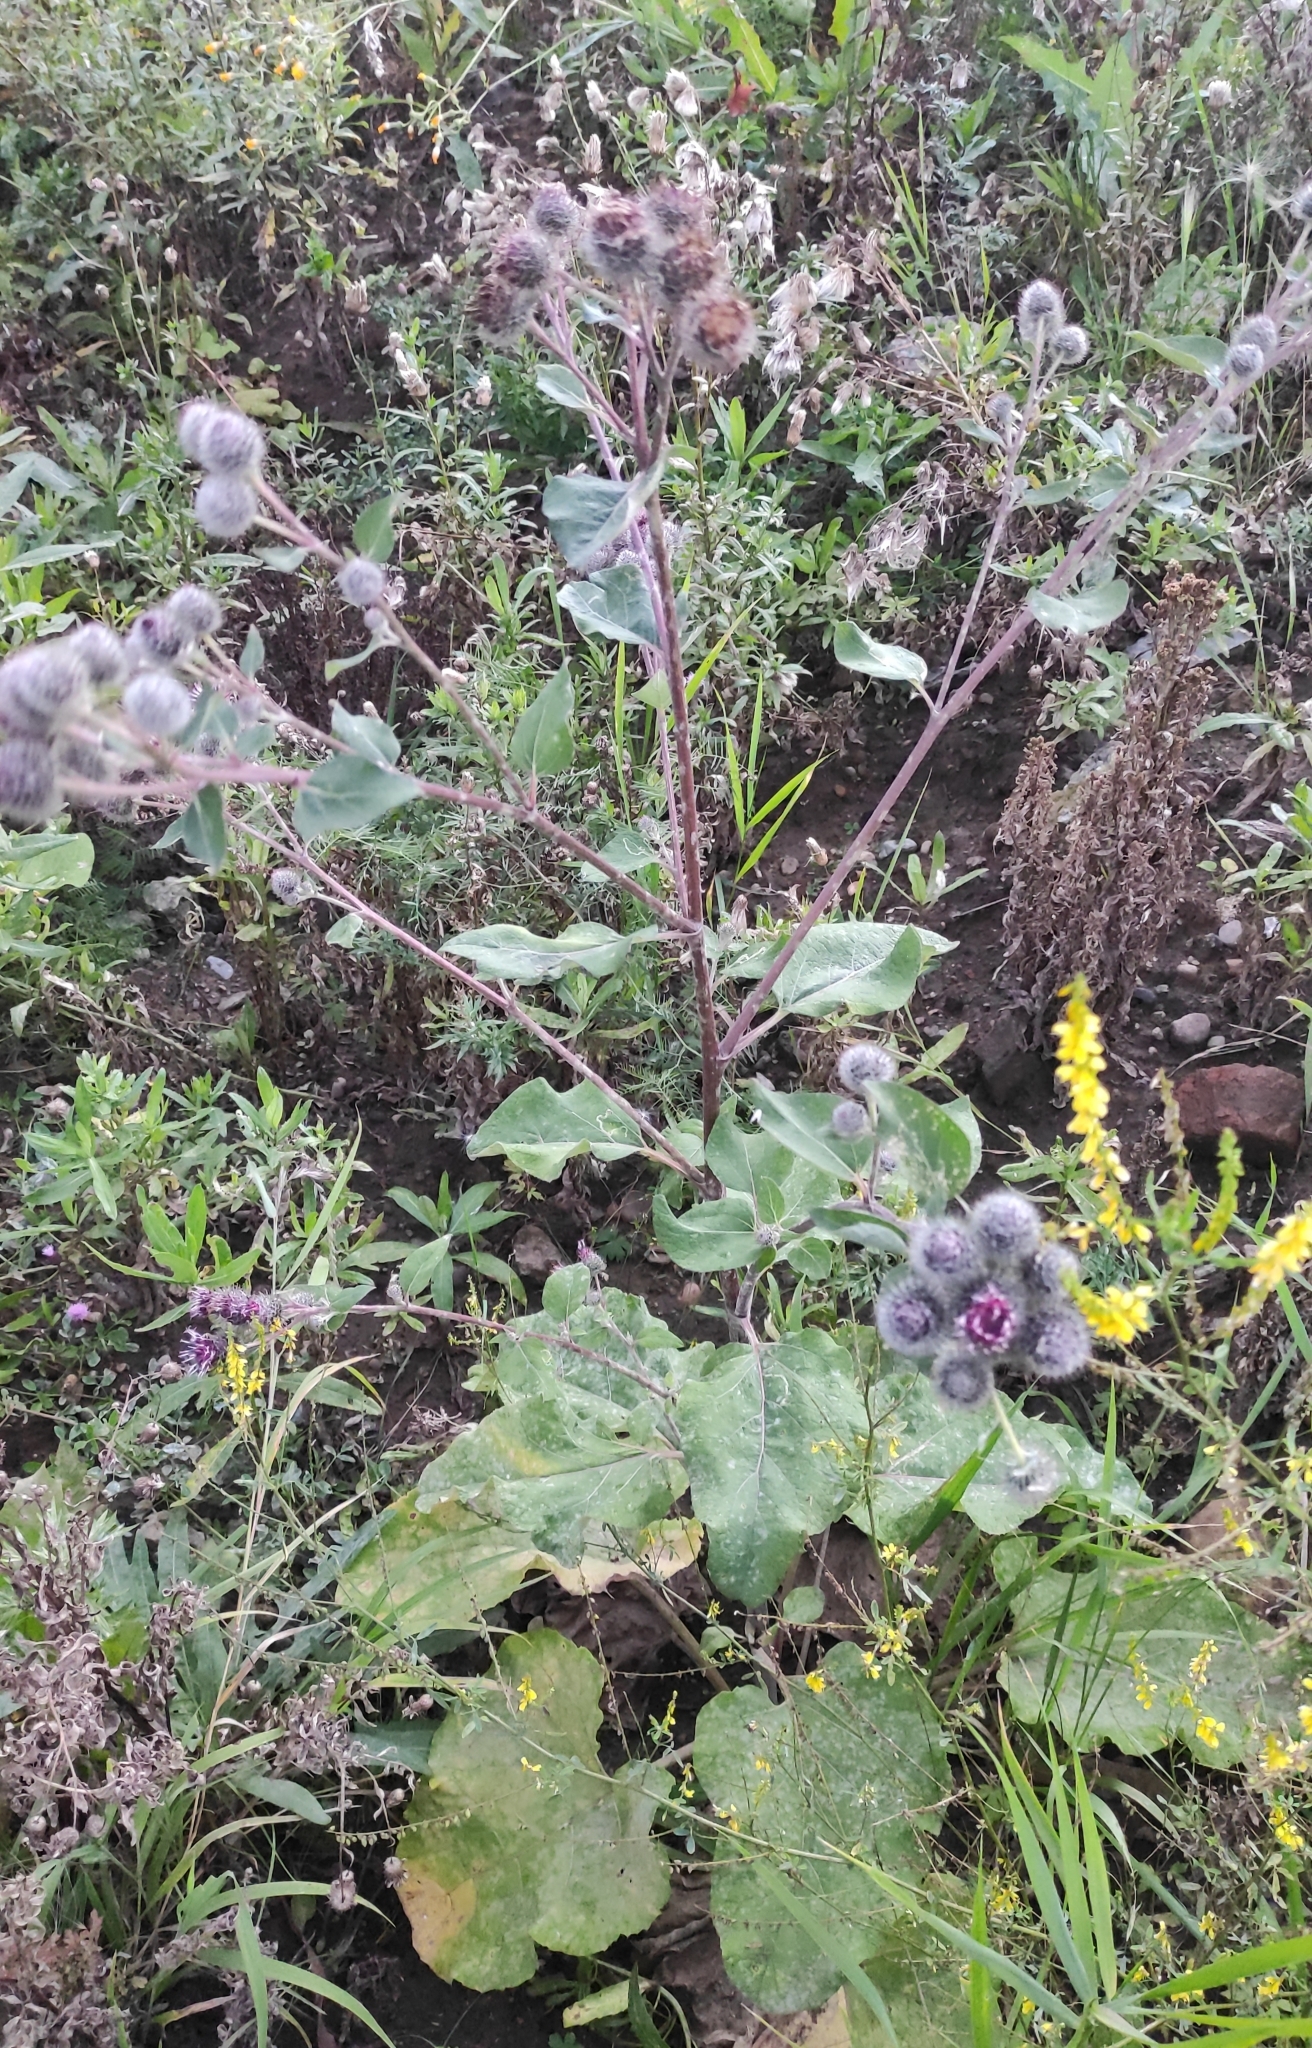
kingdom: Plantae
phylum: Tracheophyta
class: Magnoliopsida
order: Asterales
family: Asteraceae
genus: Arctium
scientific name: Arctium tomentosum
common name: Woolly burdock
